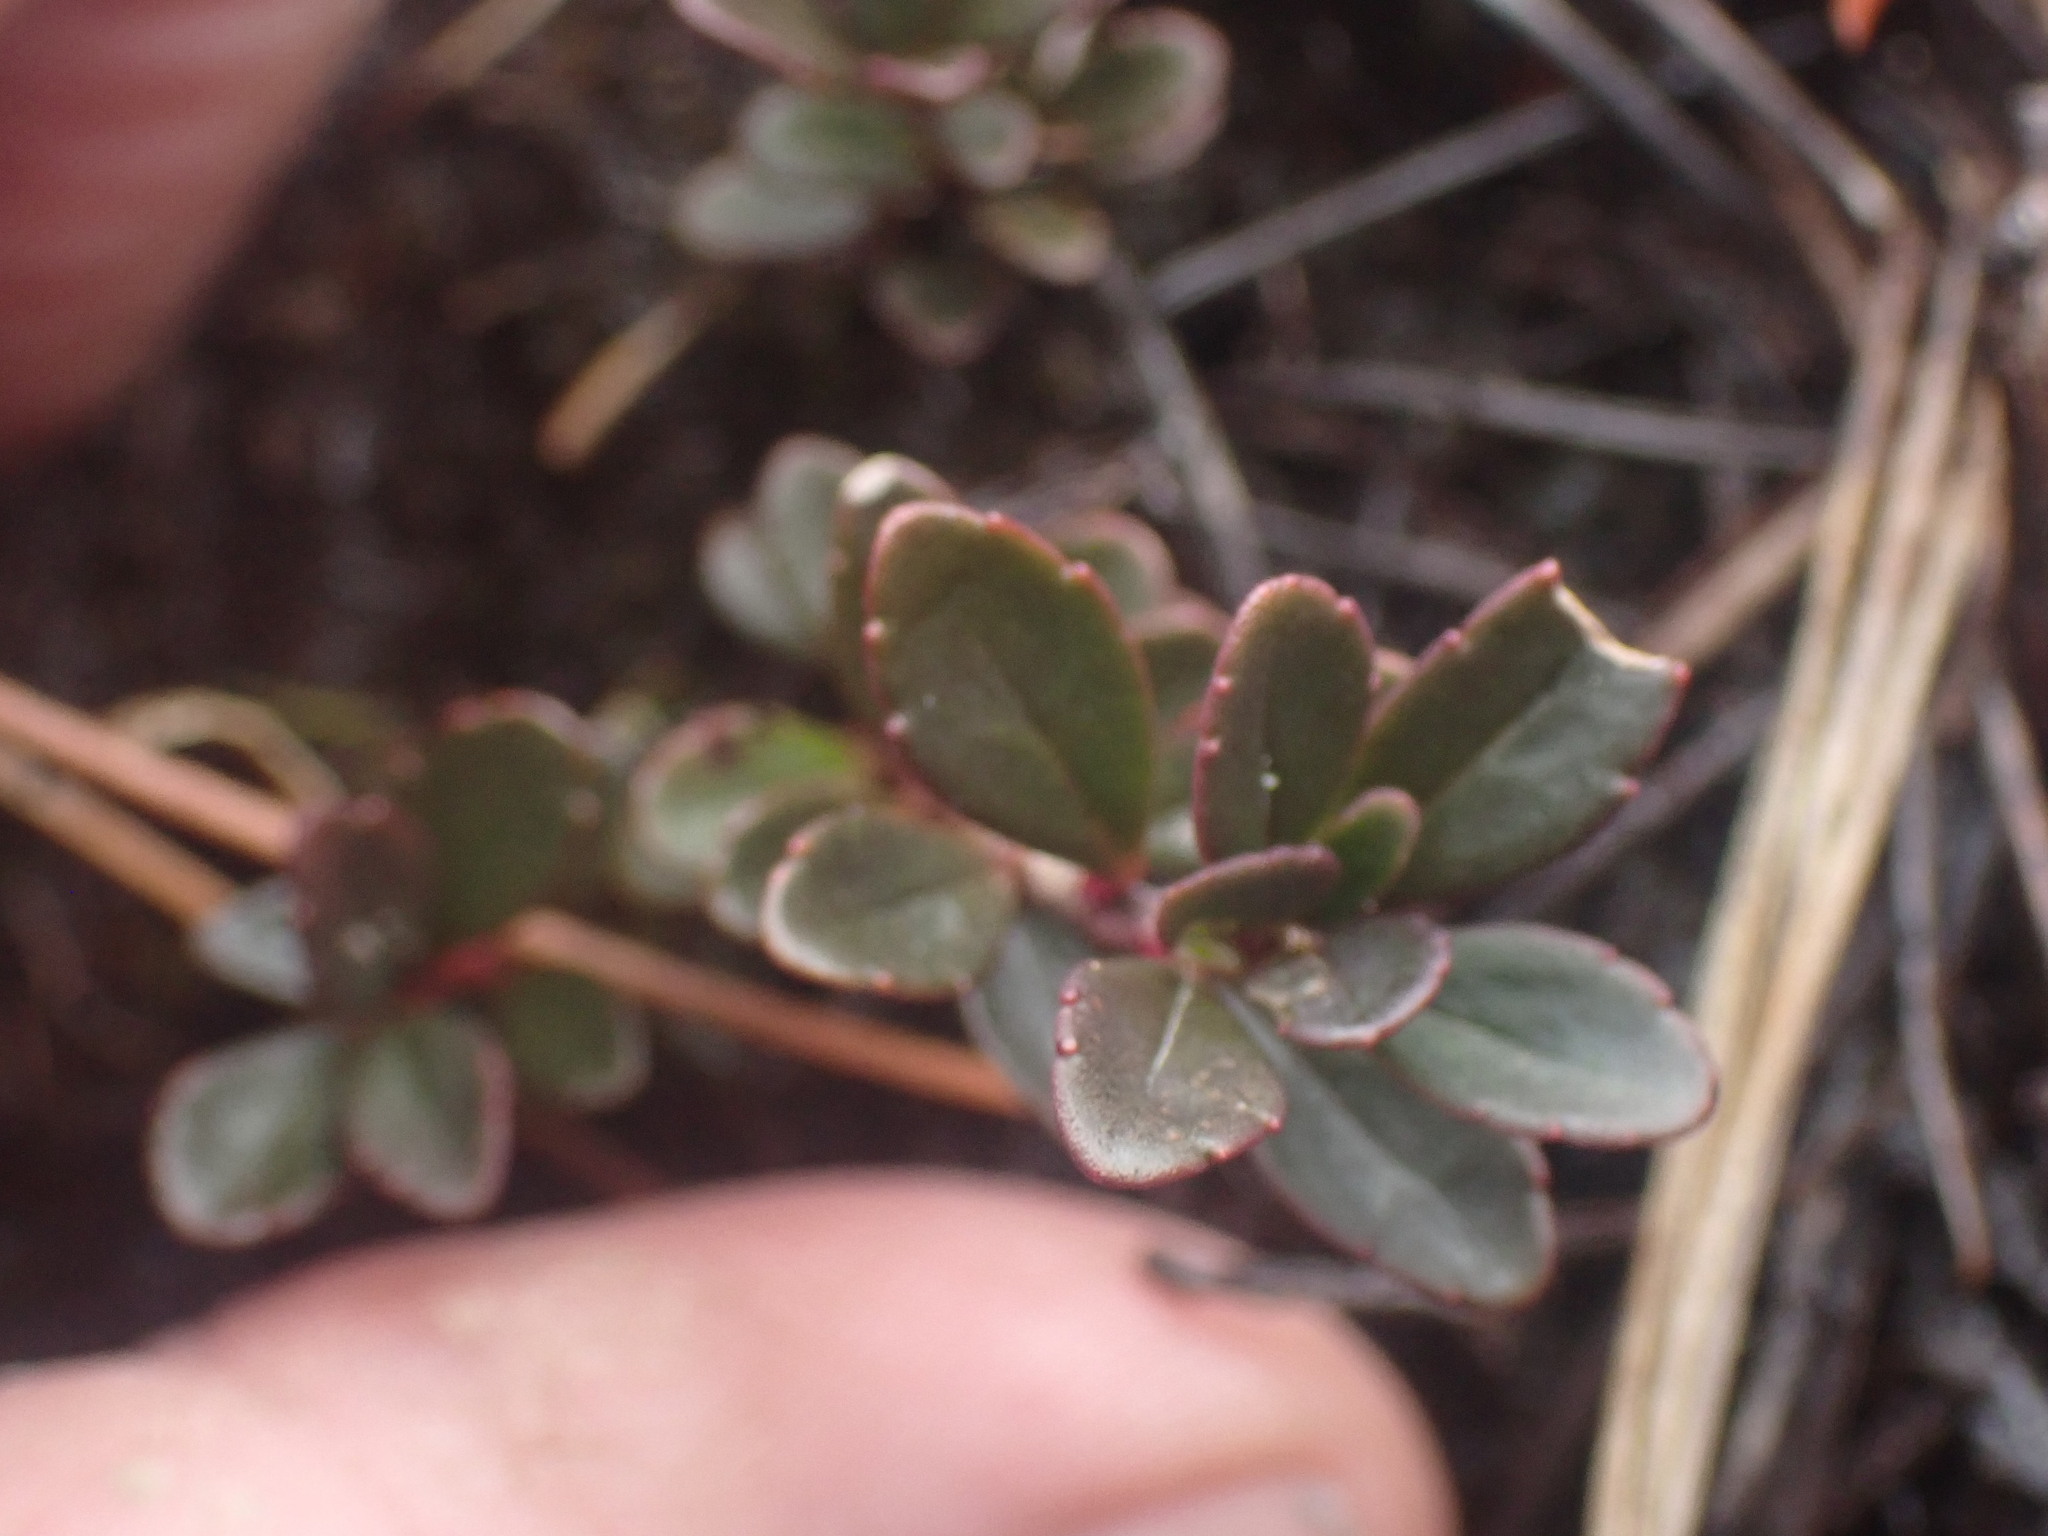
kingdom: Plantae
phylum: Tracheophyta
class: Magnoliopsida
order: Lamiales
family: Plantaginaceae
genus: Penstemon
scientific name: Penstemon davidsonii
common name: Davidson's penstemon
